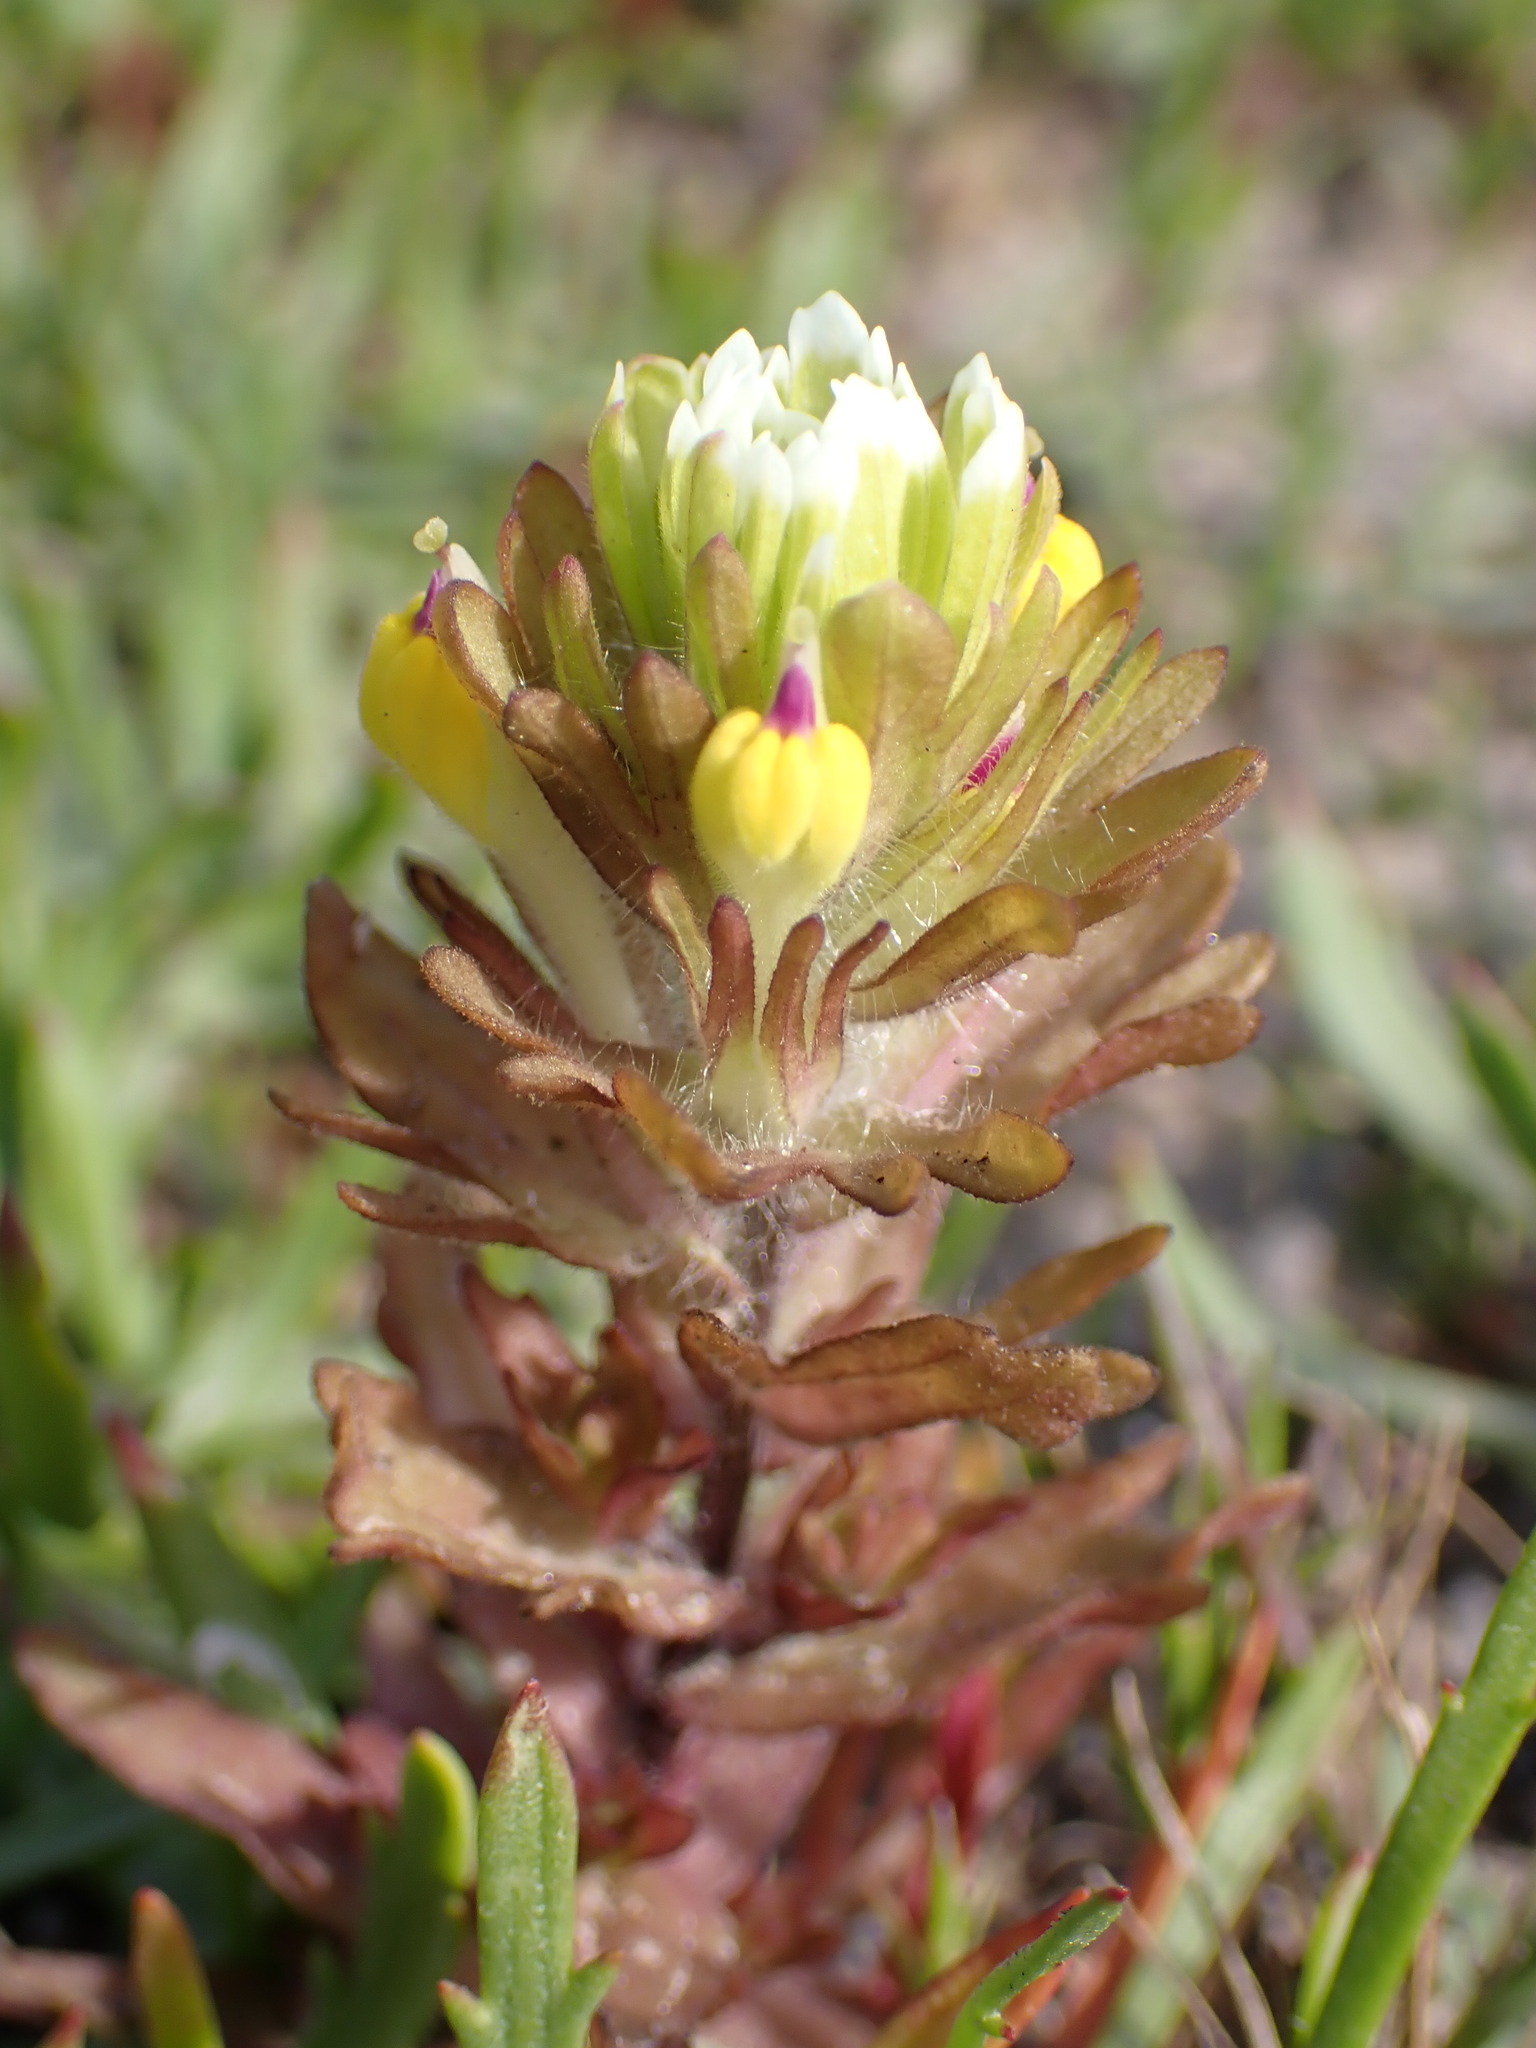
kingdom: Plantae
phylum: Tracheophyta
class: Magnoliopsida
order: Lamiales
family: Orobanchaceae
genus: Castilleja
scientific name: Castilleja ambigua
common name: Johnny-nip
